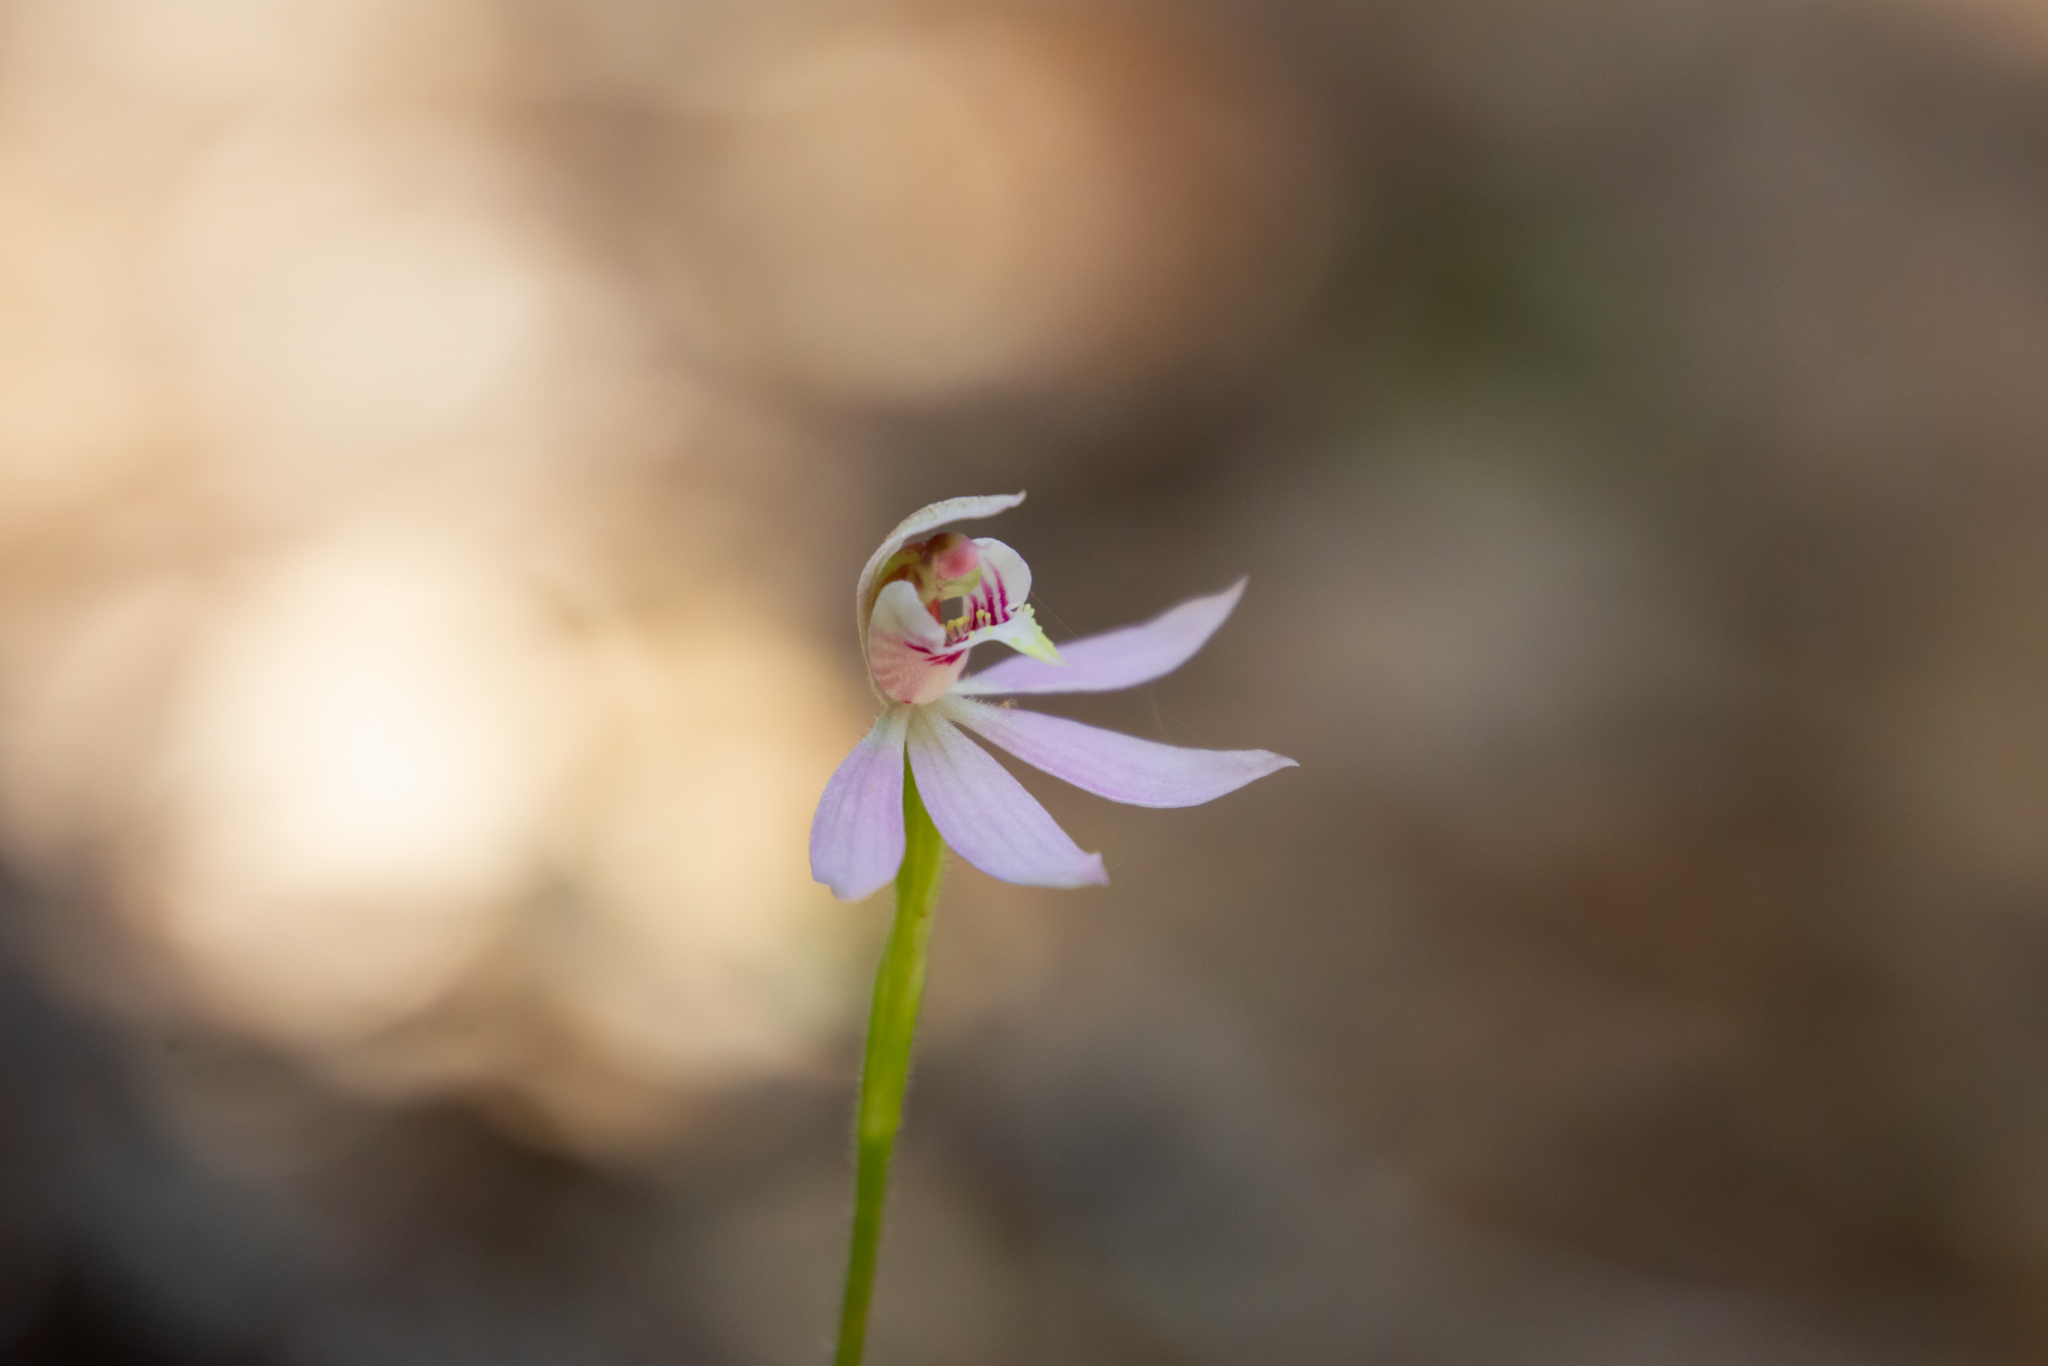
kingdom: Plantae
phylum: Tracheophyta
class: Liliopsida
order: Asparagales
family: Orchidaceae
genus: Caladenia
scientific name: Caladenia variegata
